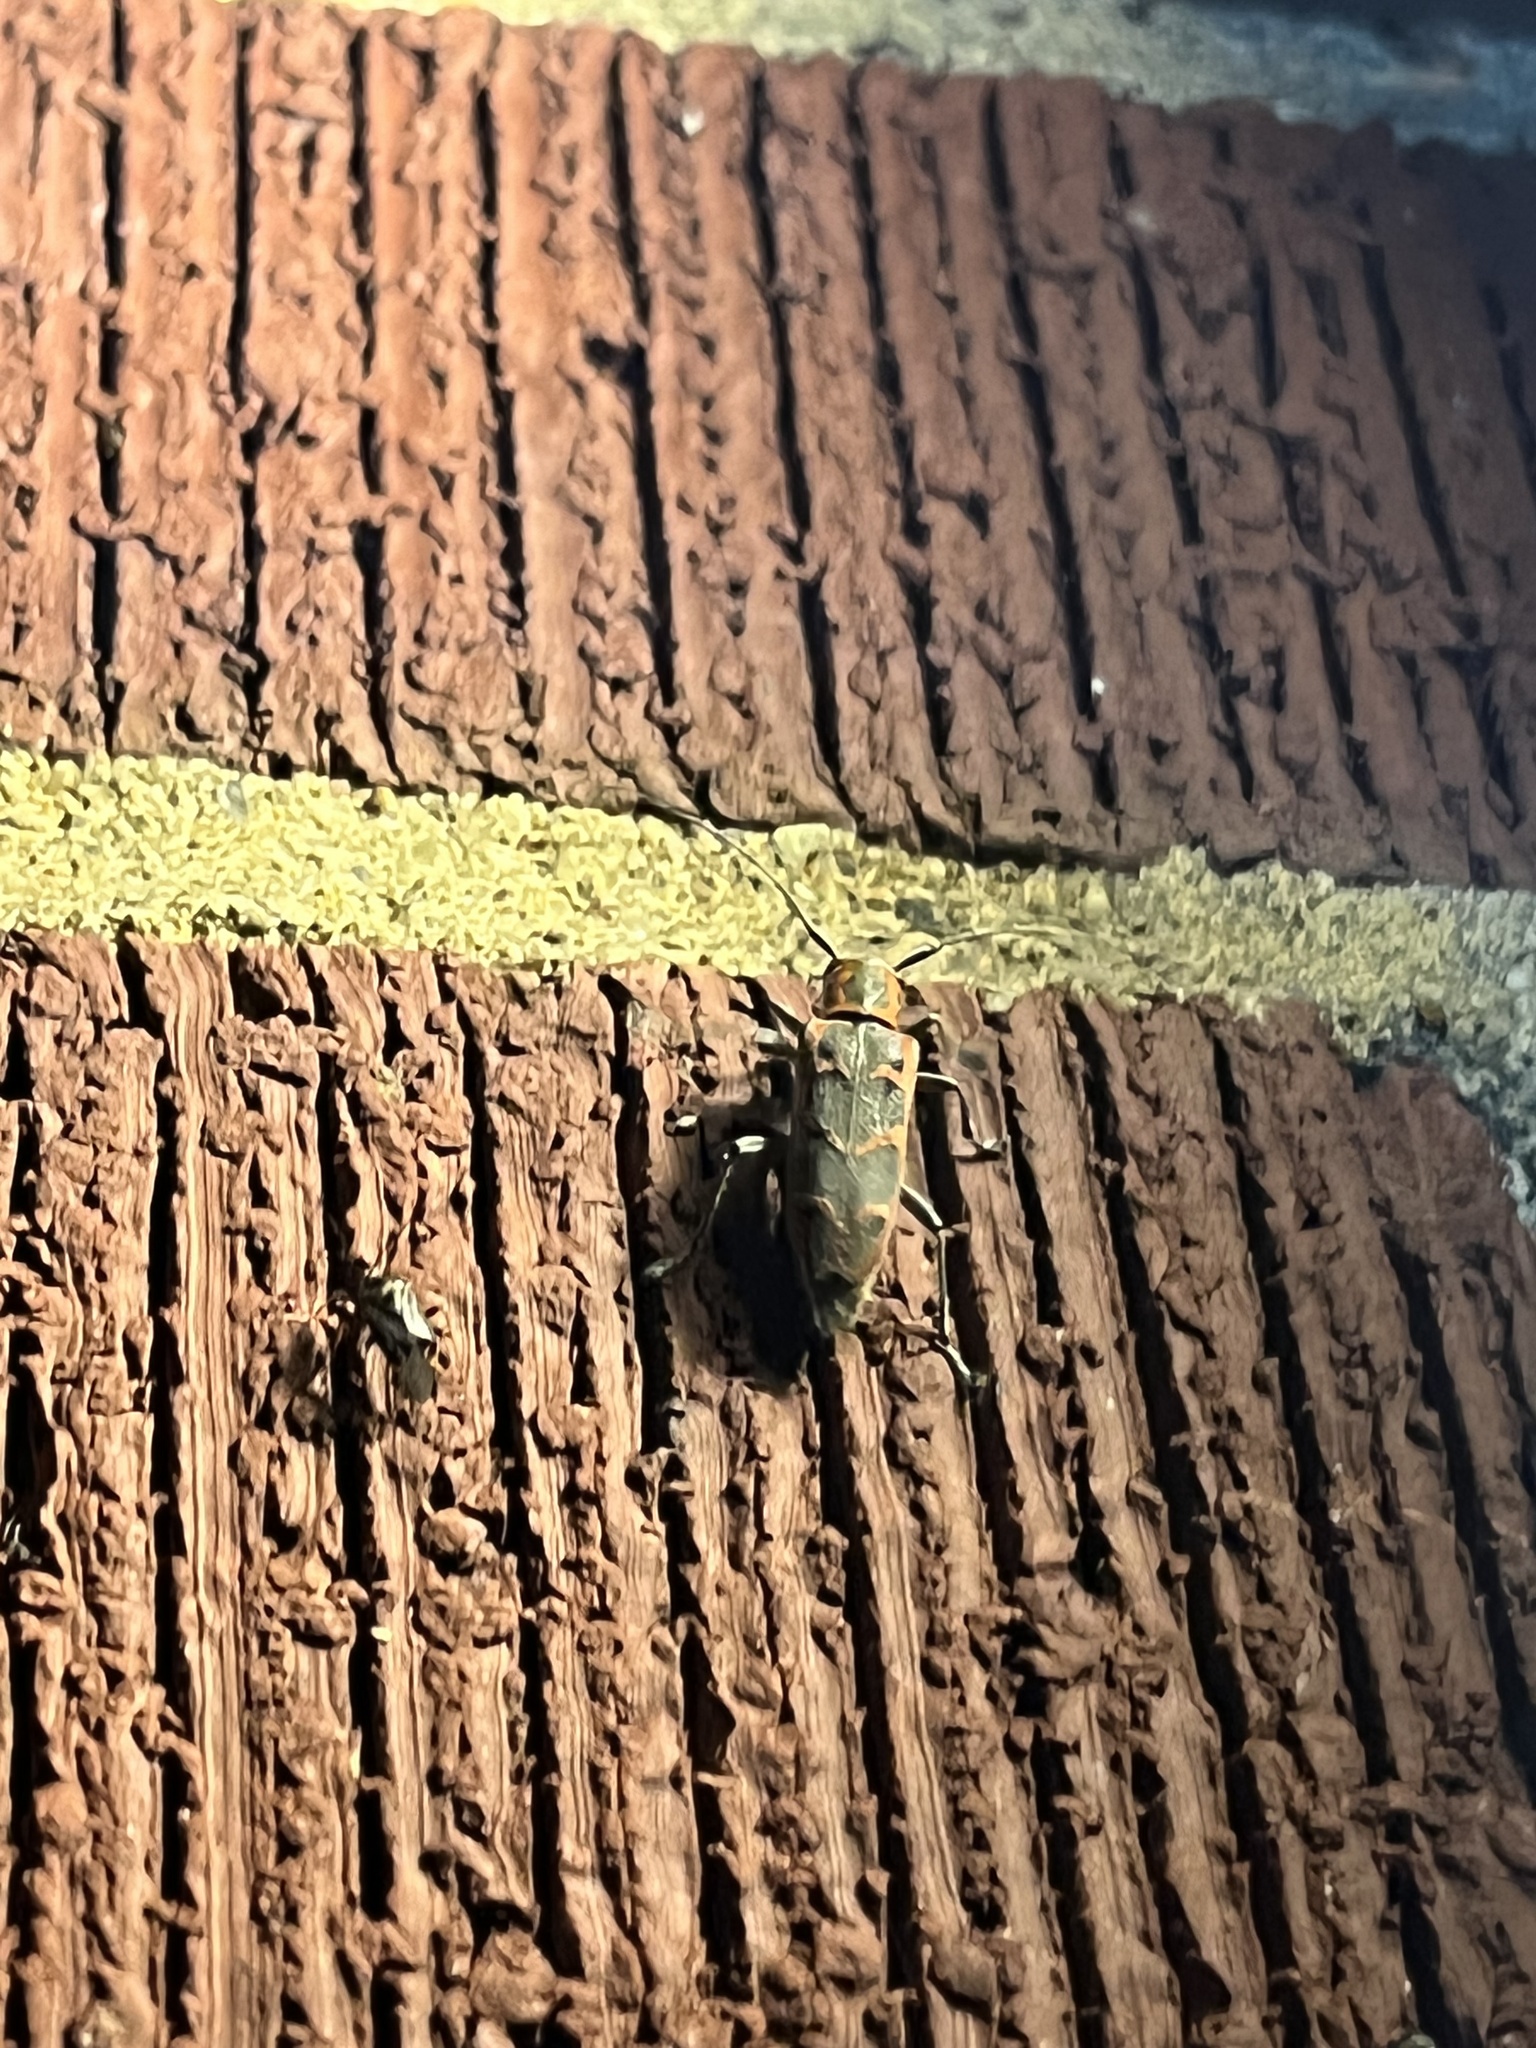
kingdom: Animalia
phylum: Arthropoda
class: Insecta
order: Coleoptera
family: Cerambycidae
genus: Saperda
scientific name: Saperda tridentata
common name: Elm borer
